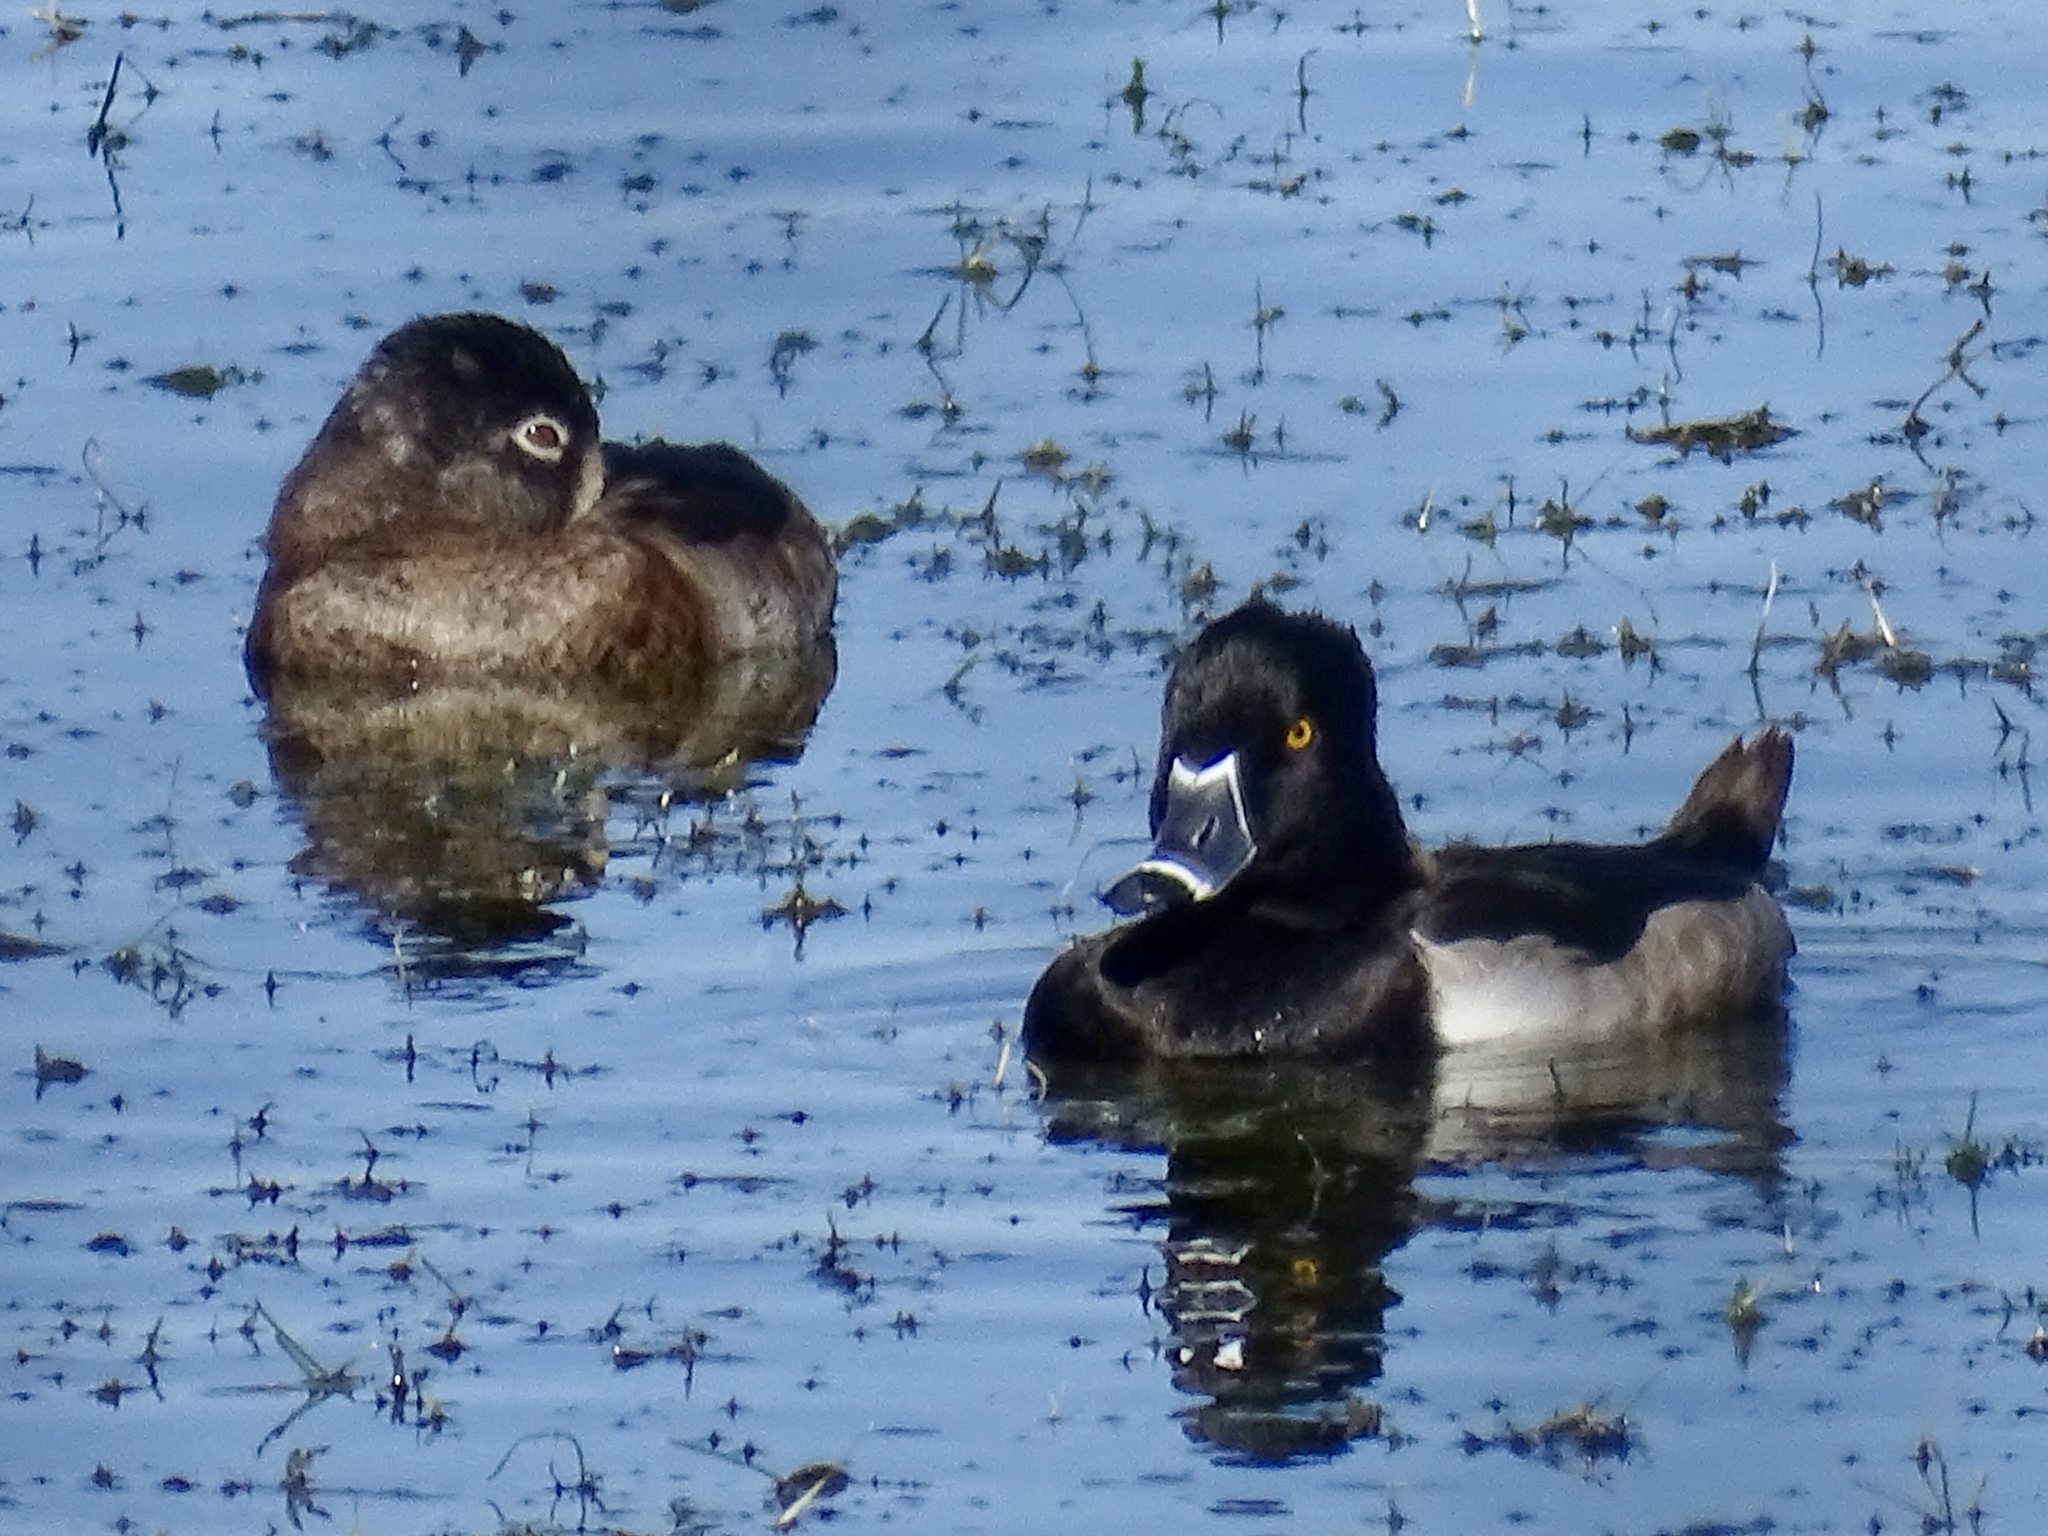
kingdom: Animalia
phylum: Chordata
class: Aves
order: Anseriformes
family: Anatidae
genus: Aythya
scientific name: Aythya collaris
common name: Ring-necked duck
